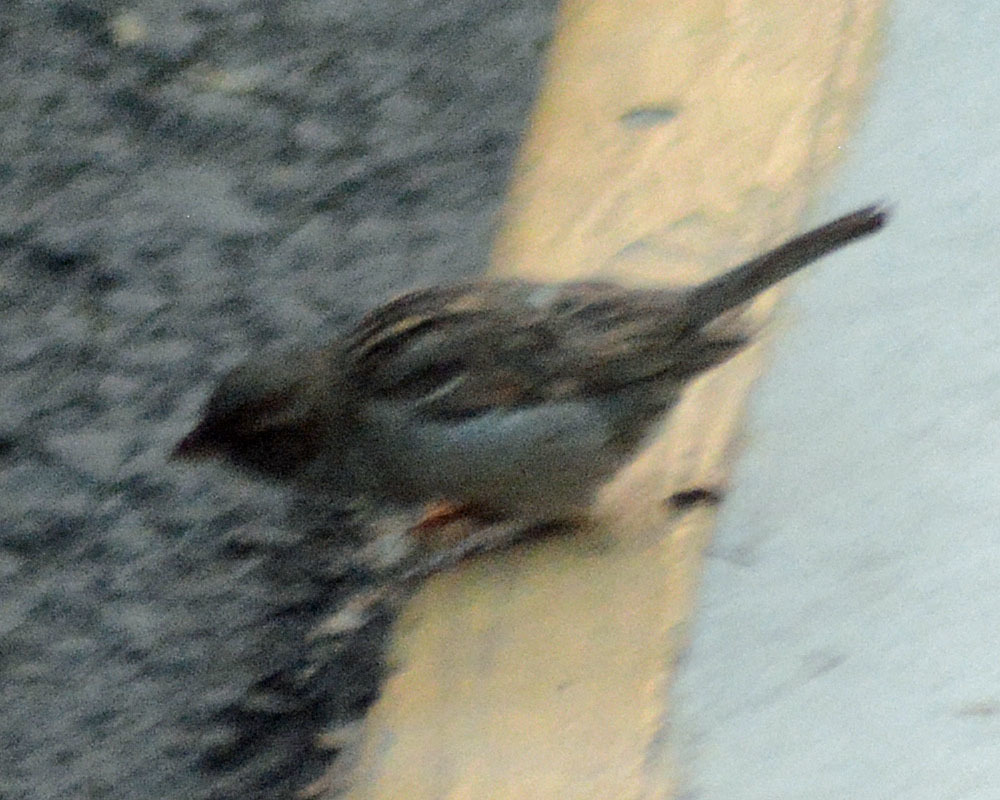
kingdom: Animalia
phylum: Chordata
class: Aves
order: Passeriformes
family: Passeridae
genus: Passer
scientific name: Passer domesticus
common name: House sparrow
